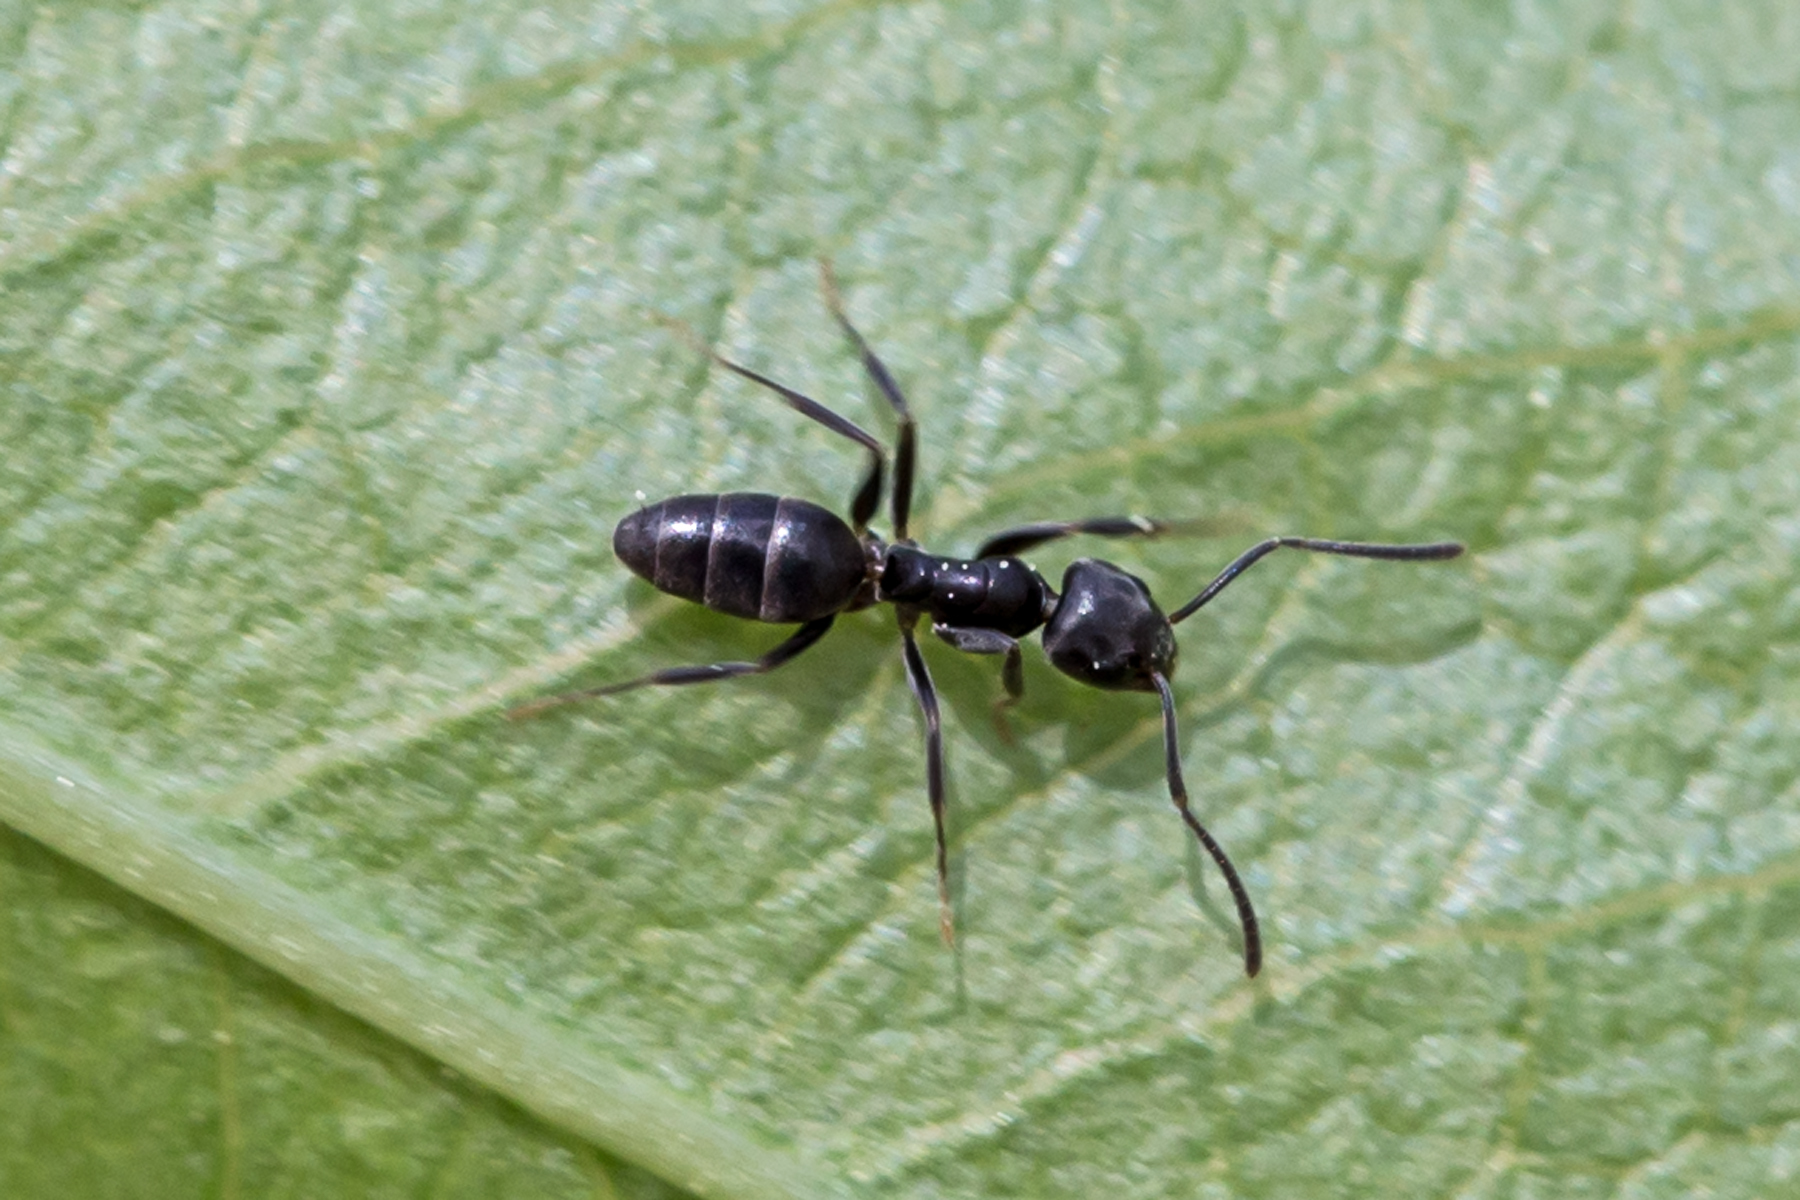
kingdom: Animalia
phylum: Arthropoda
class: Insecta
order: Hymenoptera
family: Formicidae
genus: Tapinoma
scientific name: Tapinoma sessile
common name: Odorous house ant
